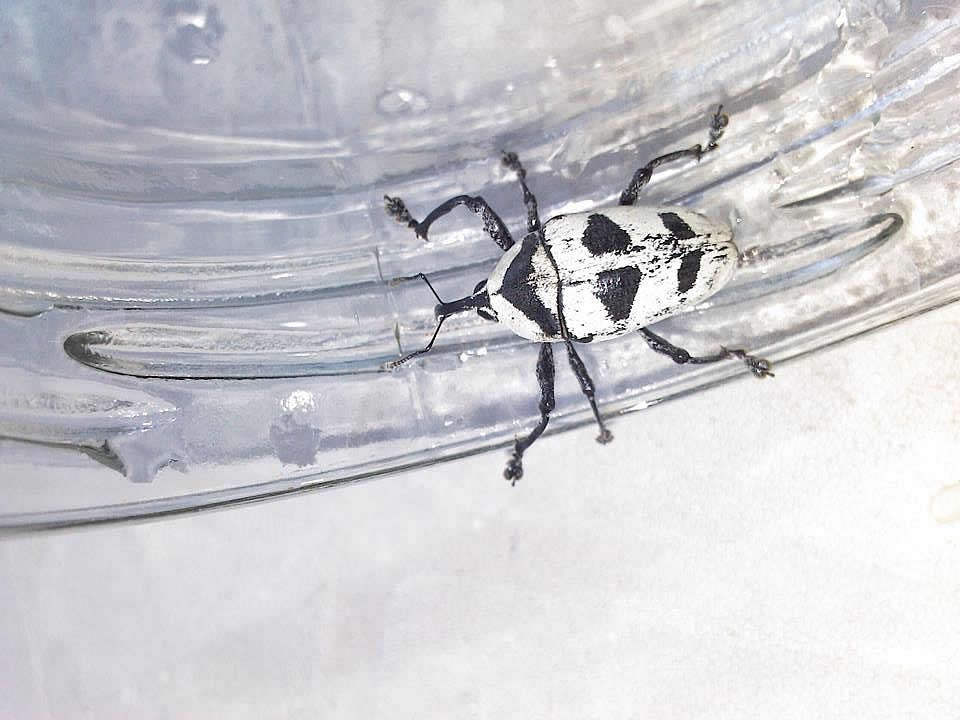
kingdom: Animalia
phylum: Arthropoda
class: Insecta
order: Coleoptera
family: Curculionidae
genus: Cholus
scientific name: Cholus annulatus
